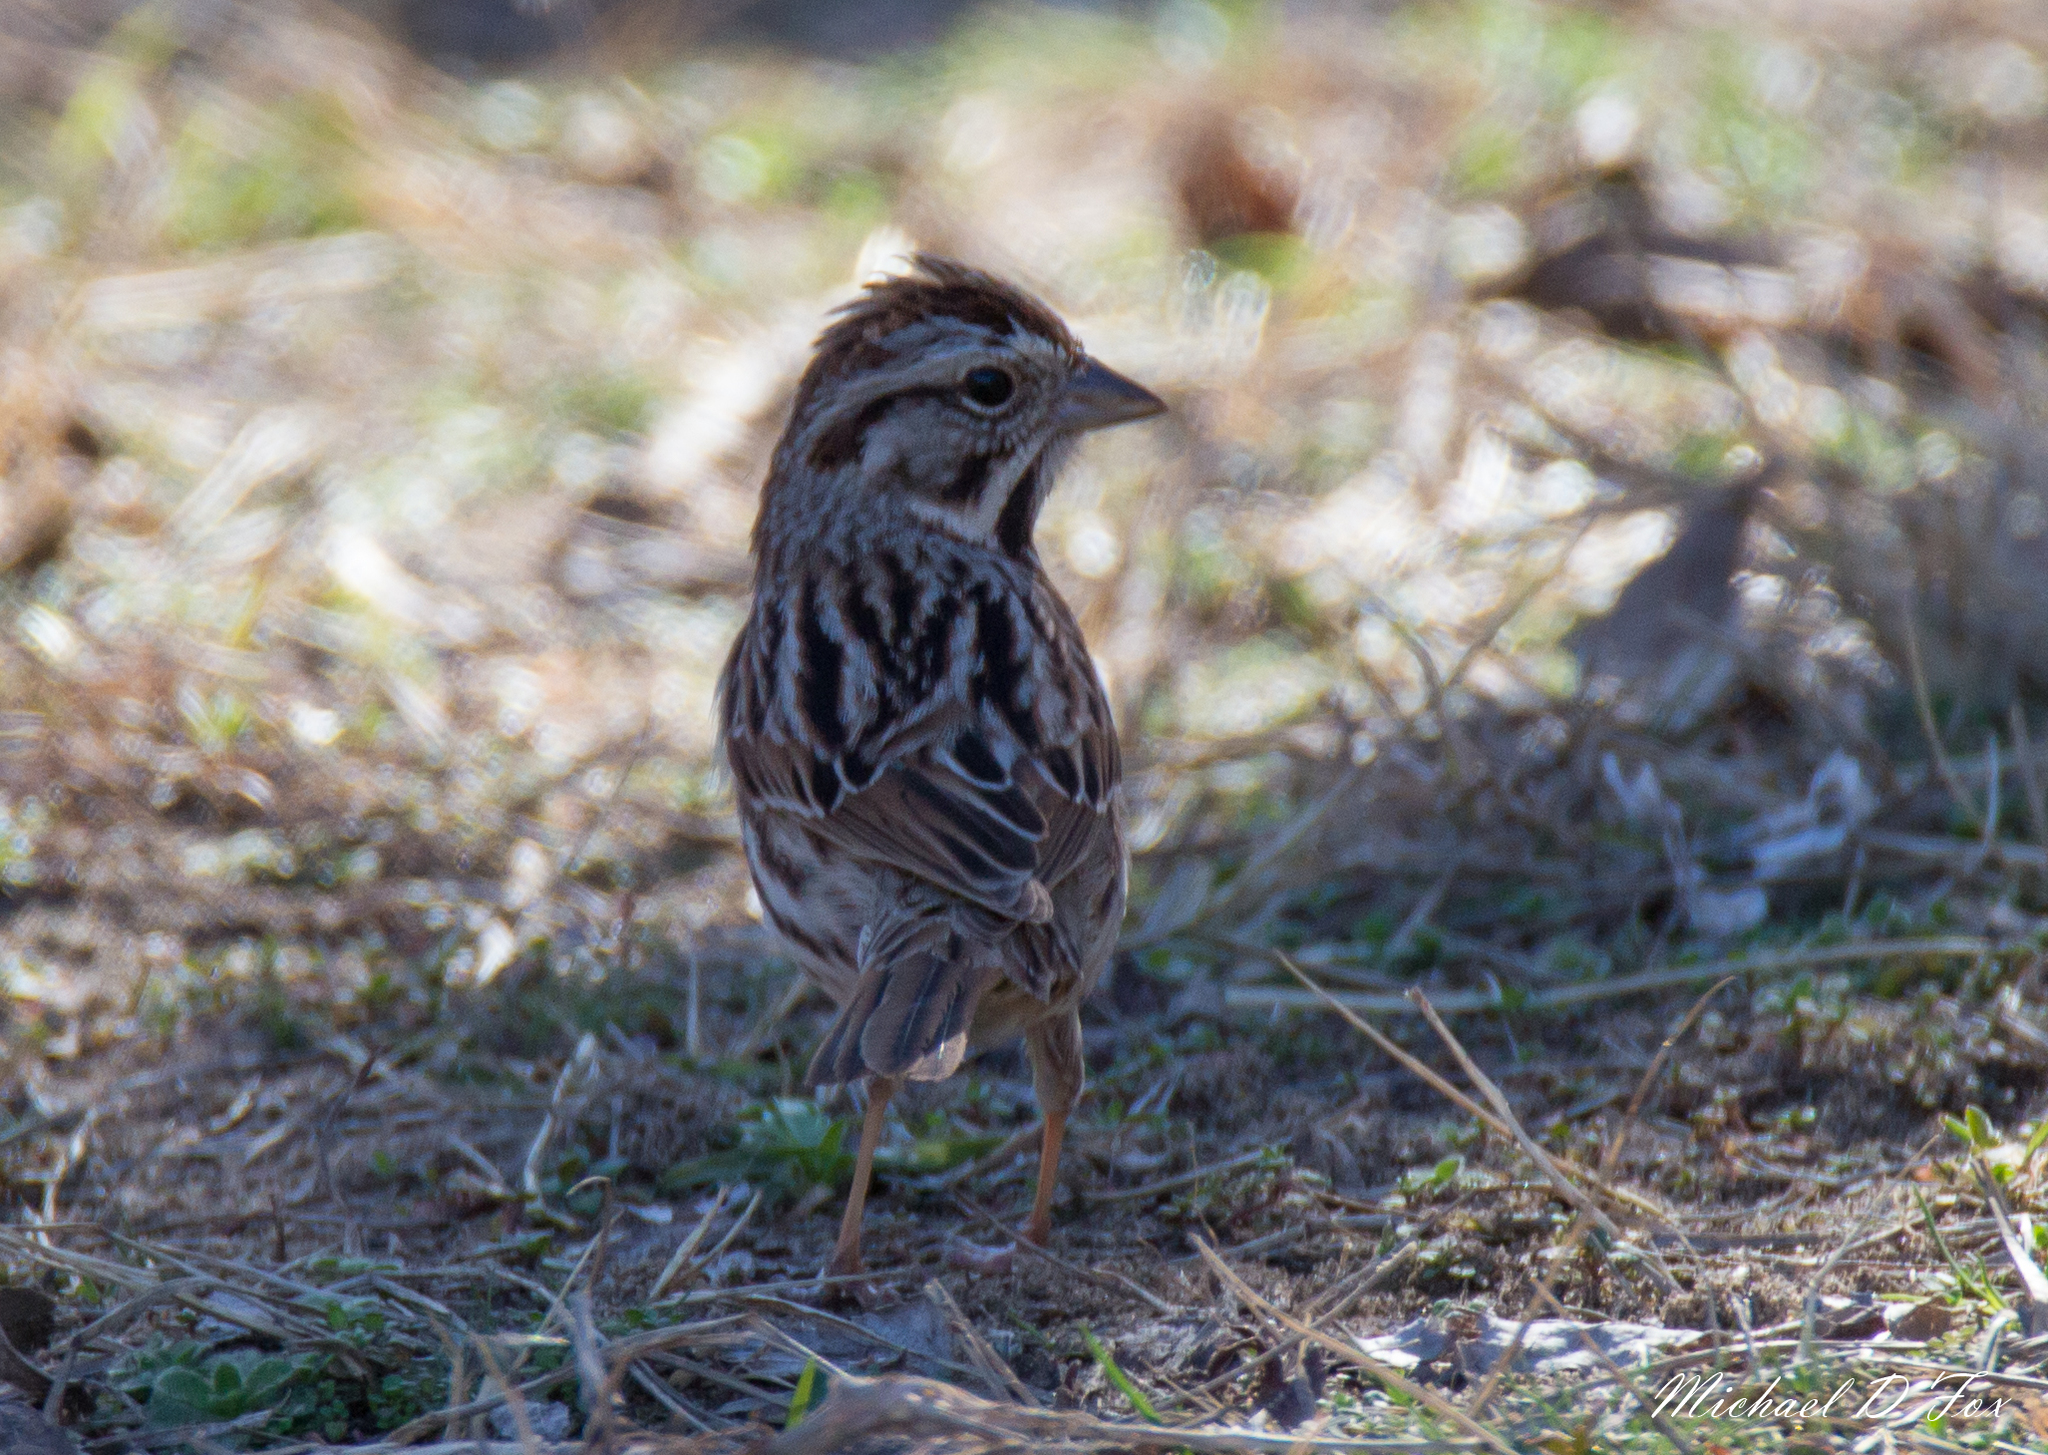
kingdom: Animalia
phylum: Chordata
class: Aves
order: Passeriformes
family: Passerellidae
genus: Melospiza
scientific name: Melospiza melodia
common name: Song sparrow
